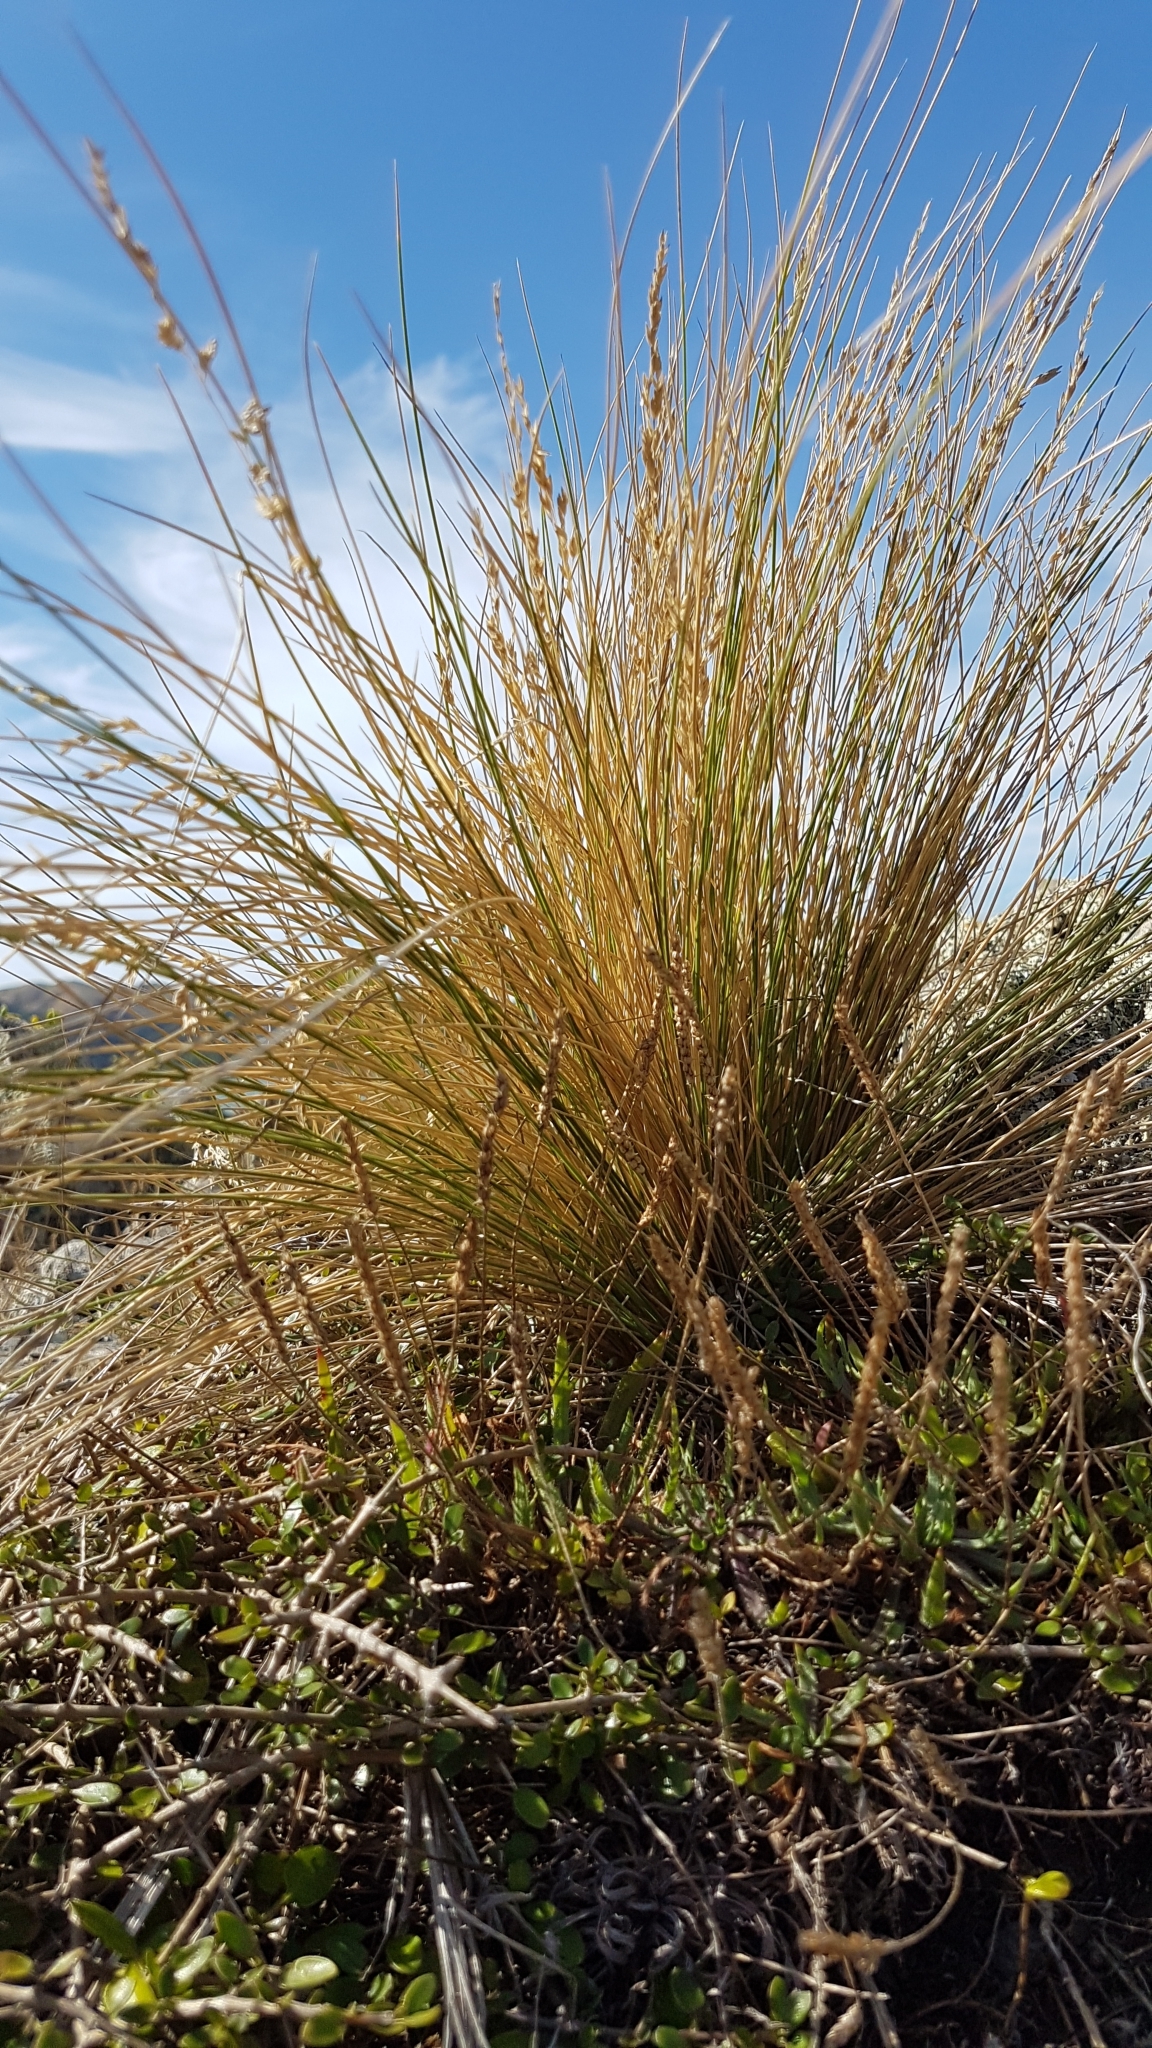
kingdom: Plantae
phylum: Tracheophyta
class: Liliopsida
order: Poales
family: Poaceae
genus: Poa
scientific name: Poa cita
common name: Silver tussock
